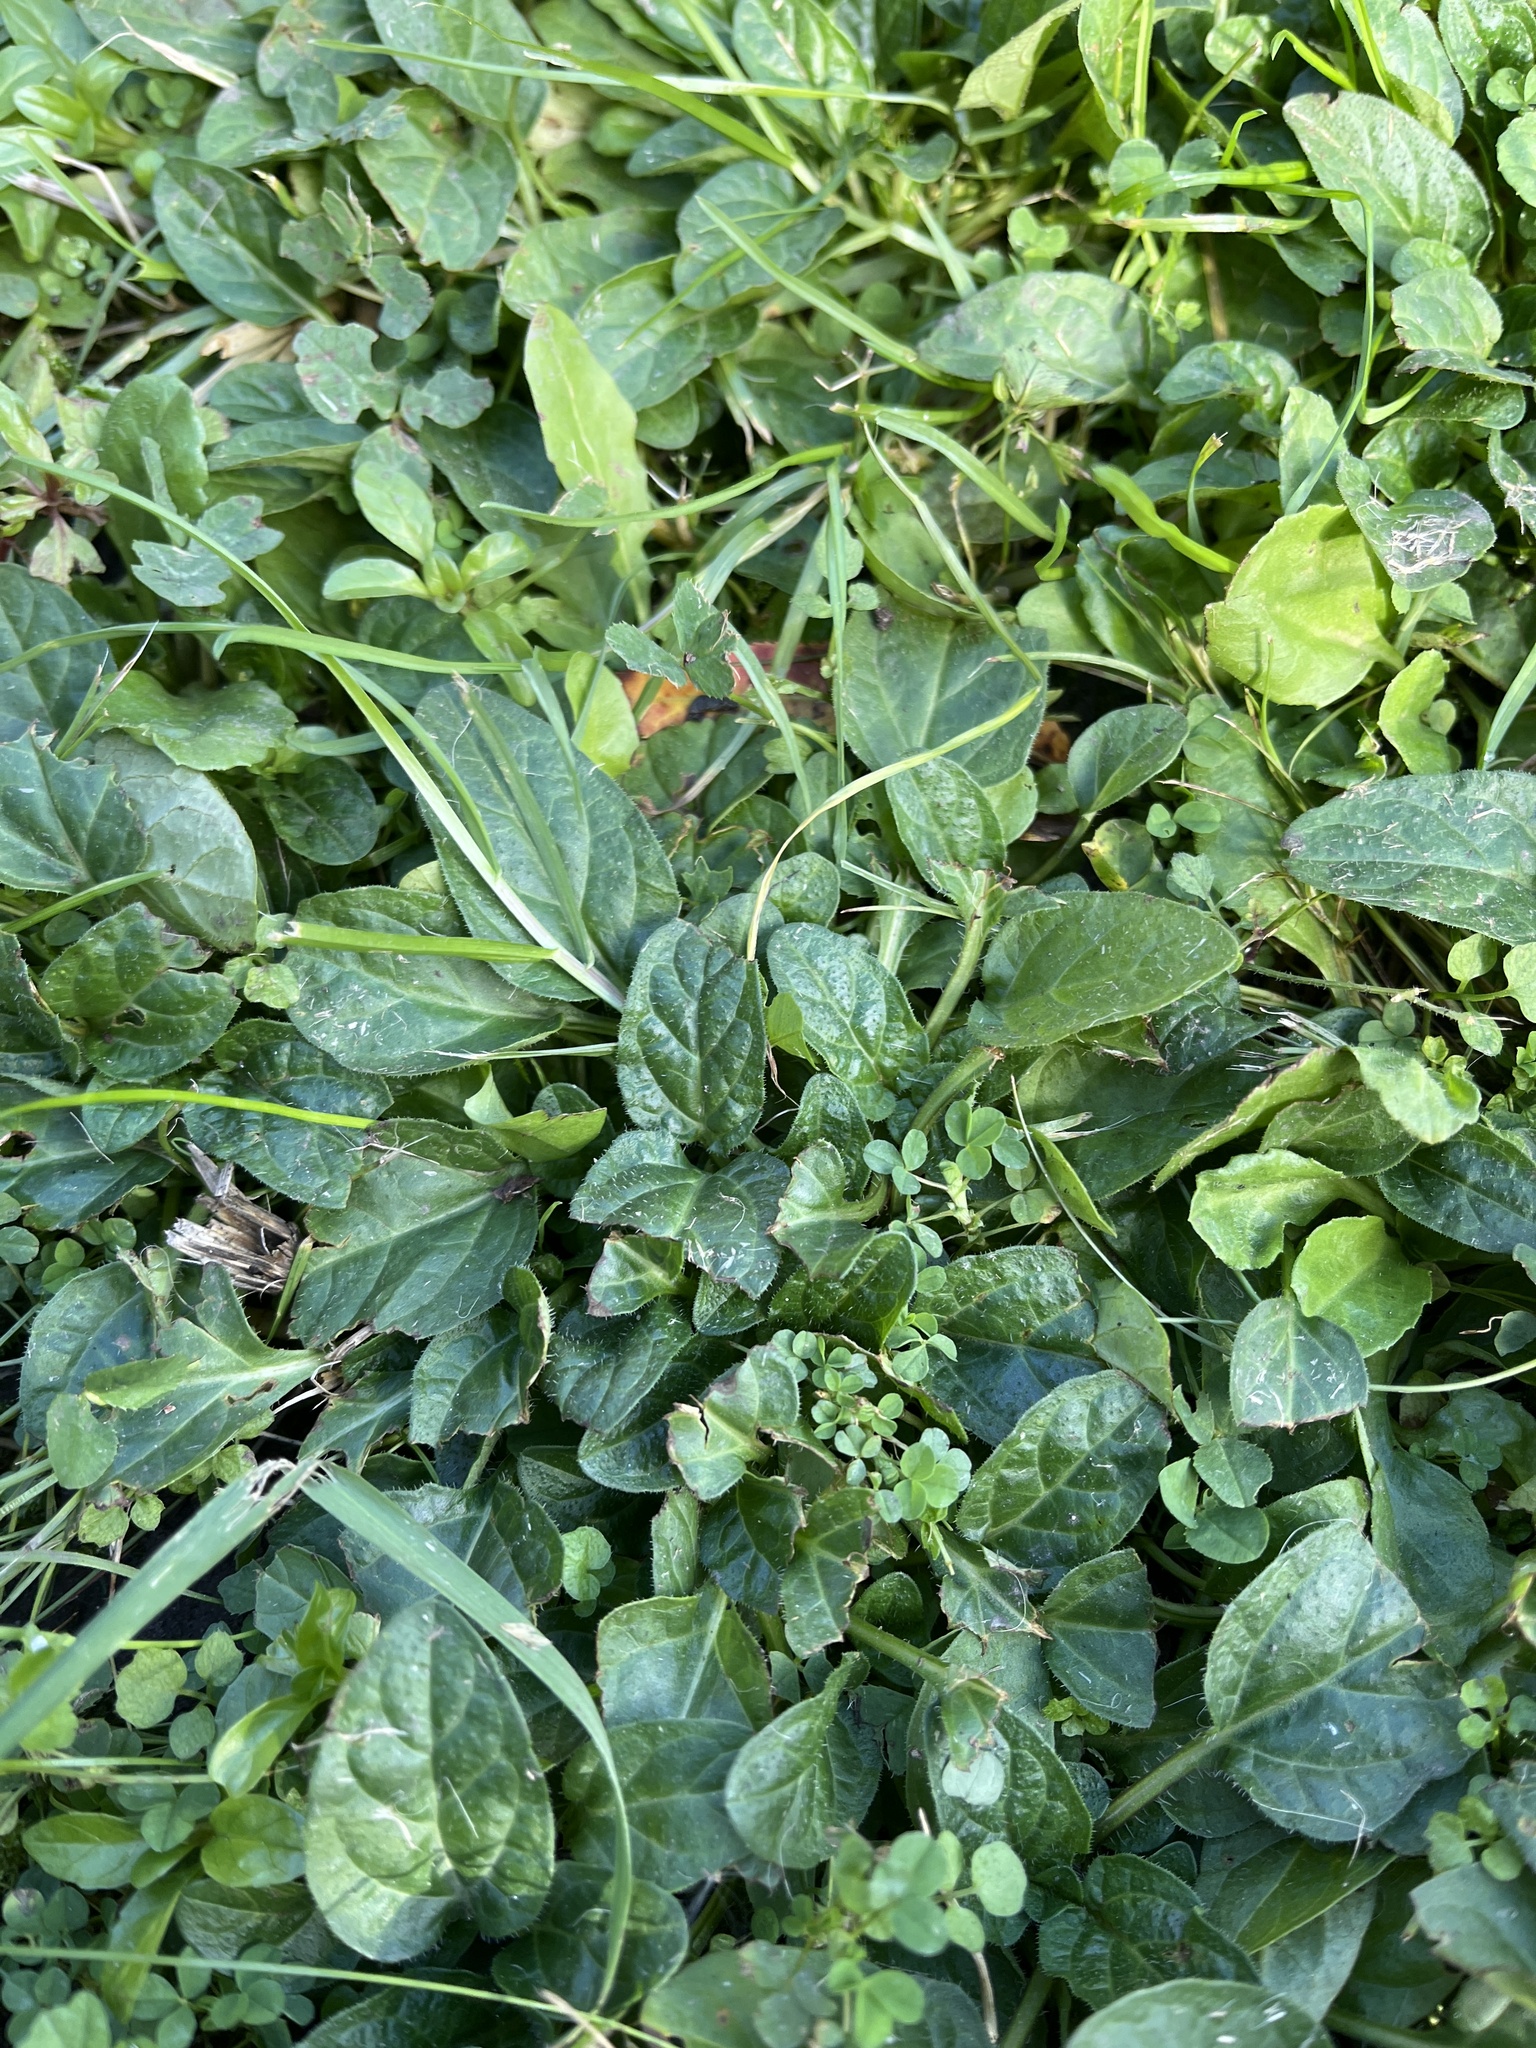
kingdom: Plantae
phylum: Tracheophyta
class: Magnoliopsida
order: Lamiales
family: Lamiaceae
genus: Prunella
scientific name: Prunella vulgaris
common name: Heal-all
